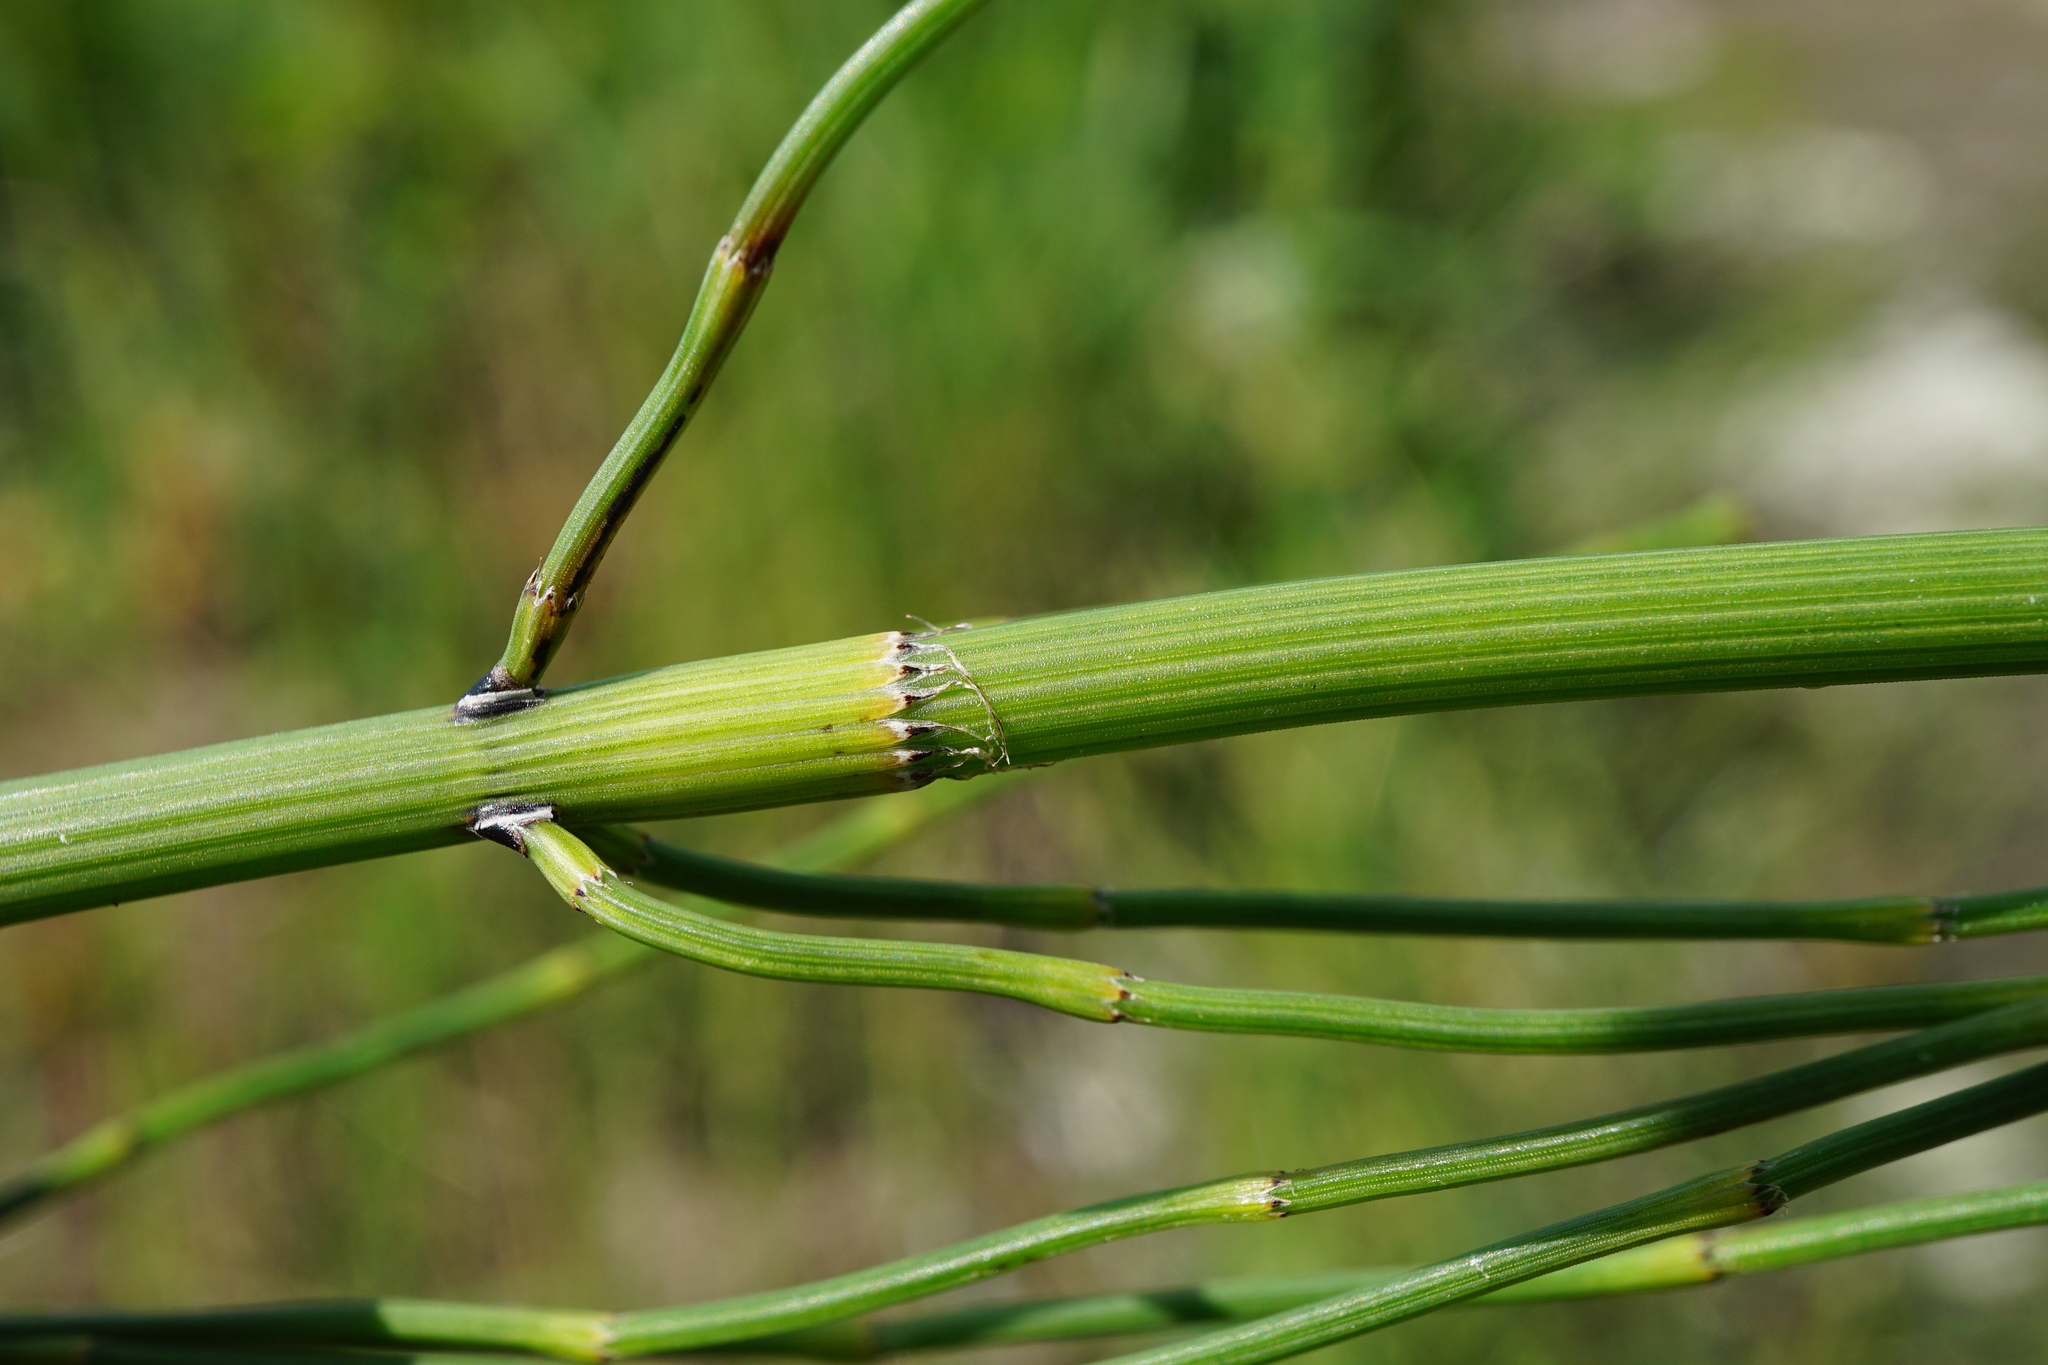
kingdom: Plantae
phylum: Tracheophyta
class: Polypodiopsida
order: Equisetales
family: Equisetaceae
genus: Equisetum
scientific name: Equisetum ramosissimum
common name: Branched horsetail
